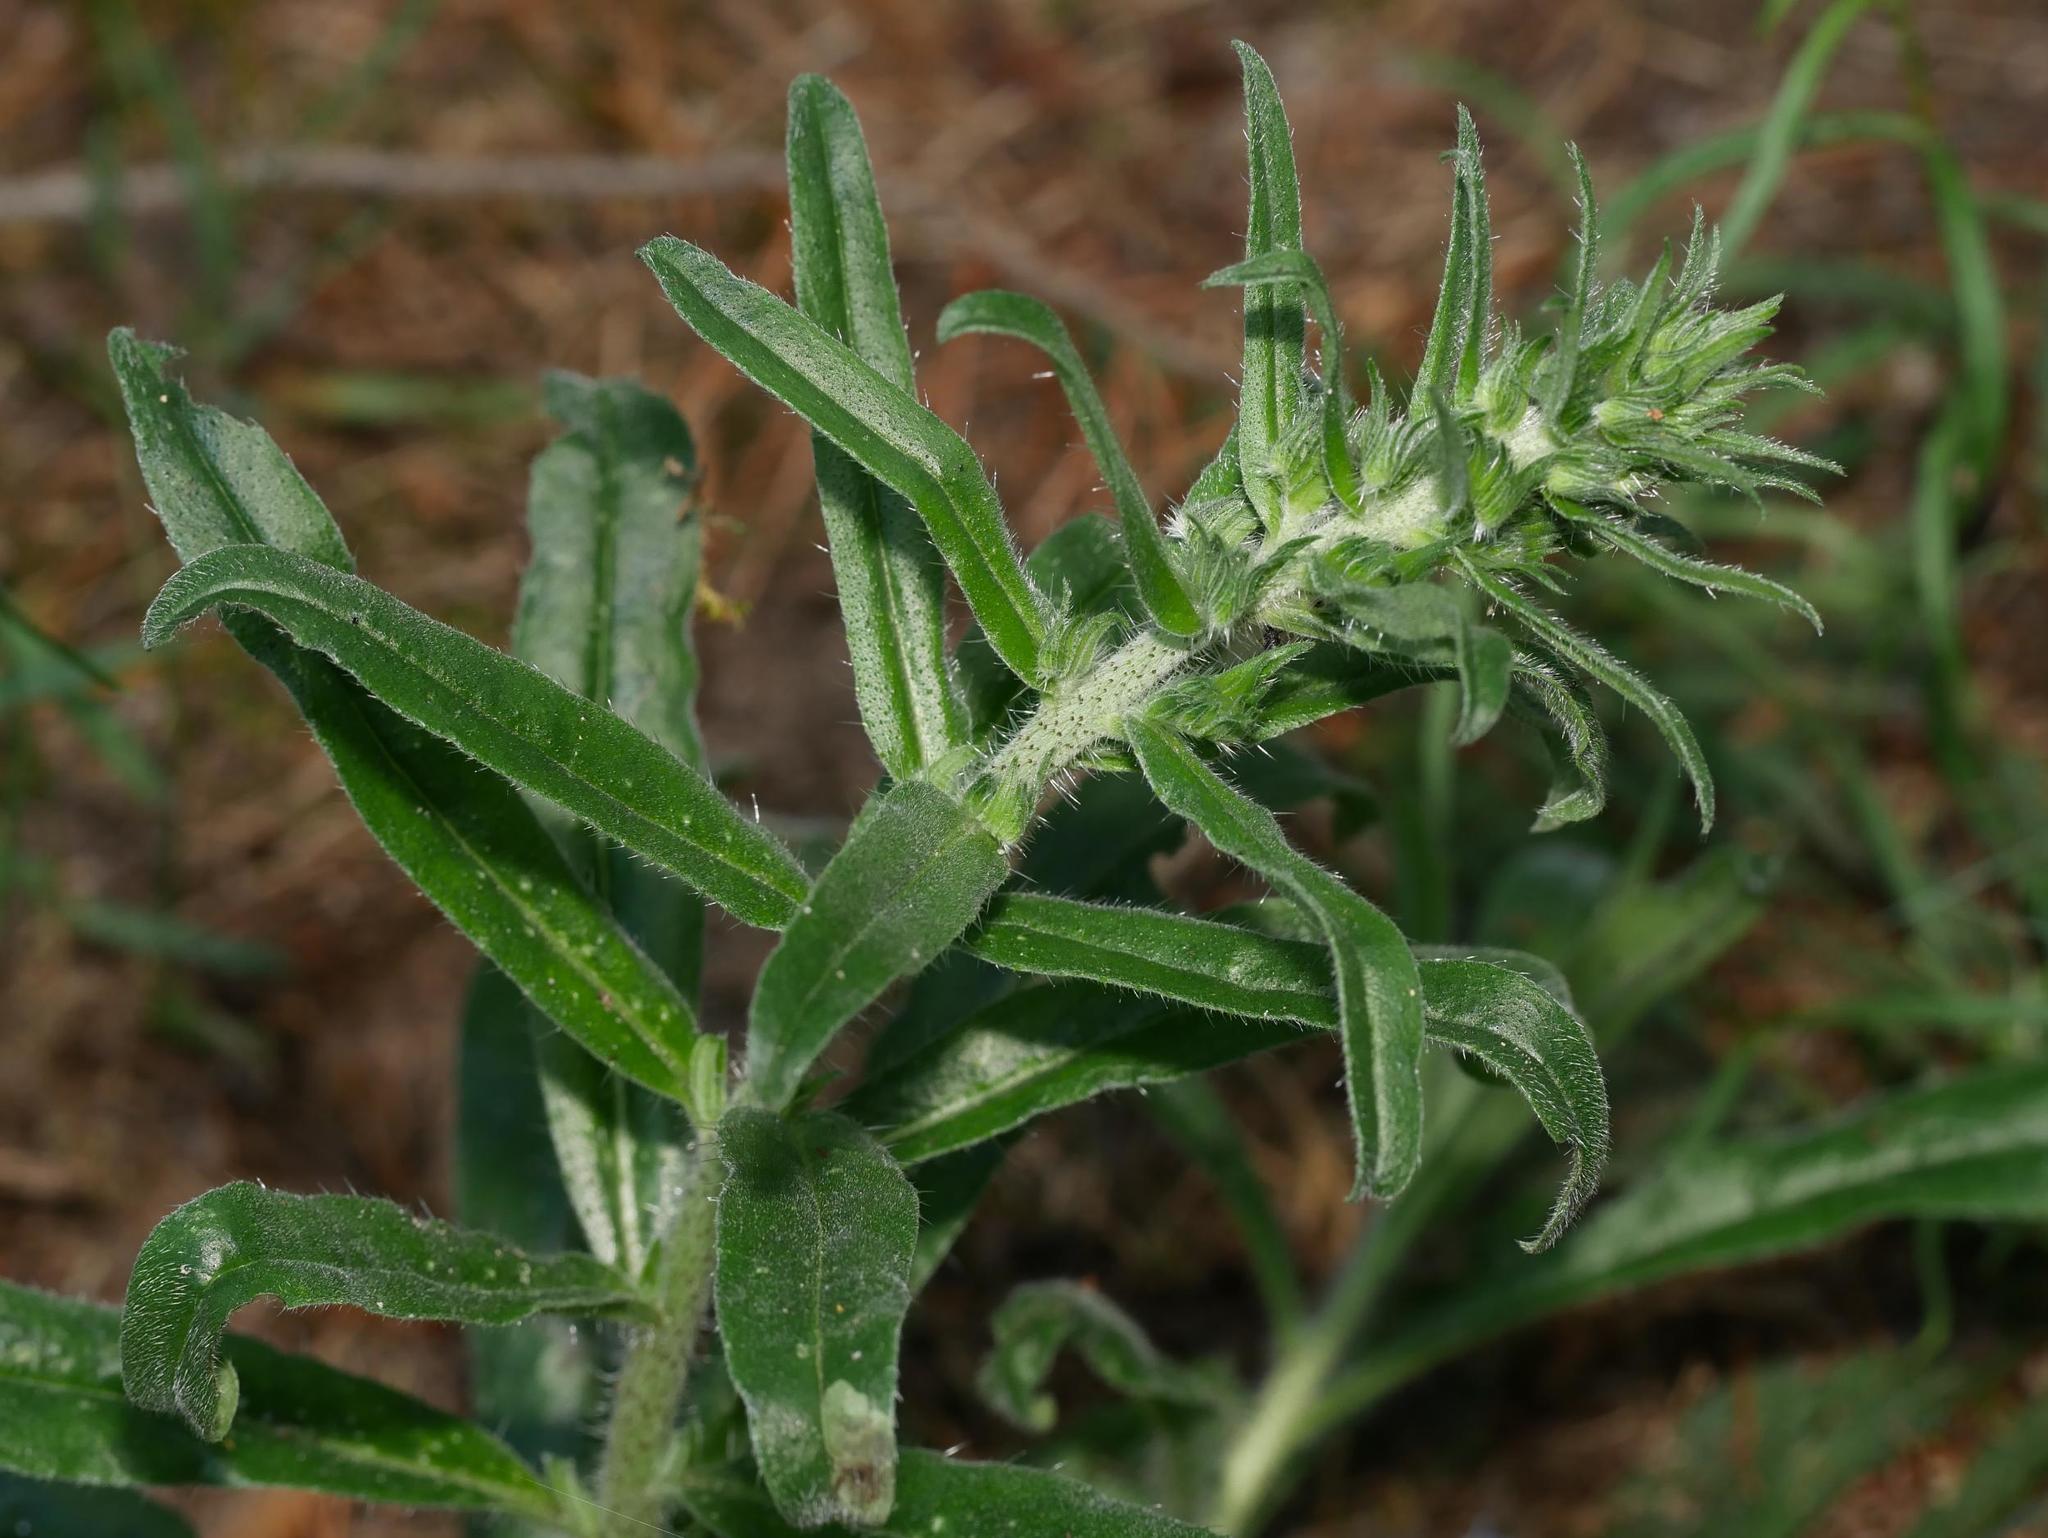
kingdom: Plantae
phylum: Tracheophyta
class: Magnoliopsida
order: Boraginales
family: Boraginaceae
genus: Echium
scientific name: Echium vulgare
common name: Common viper's bugloss
